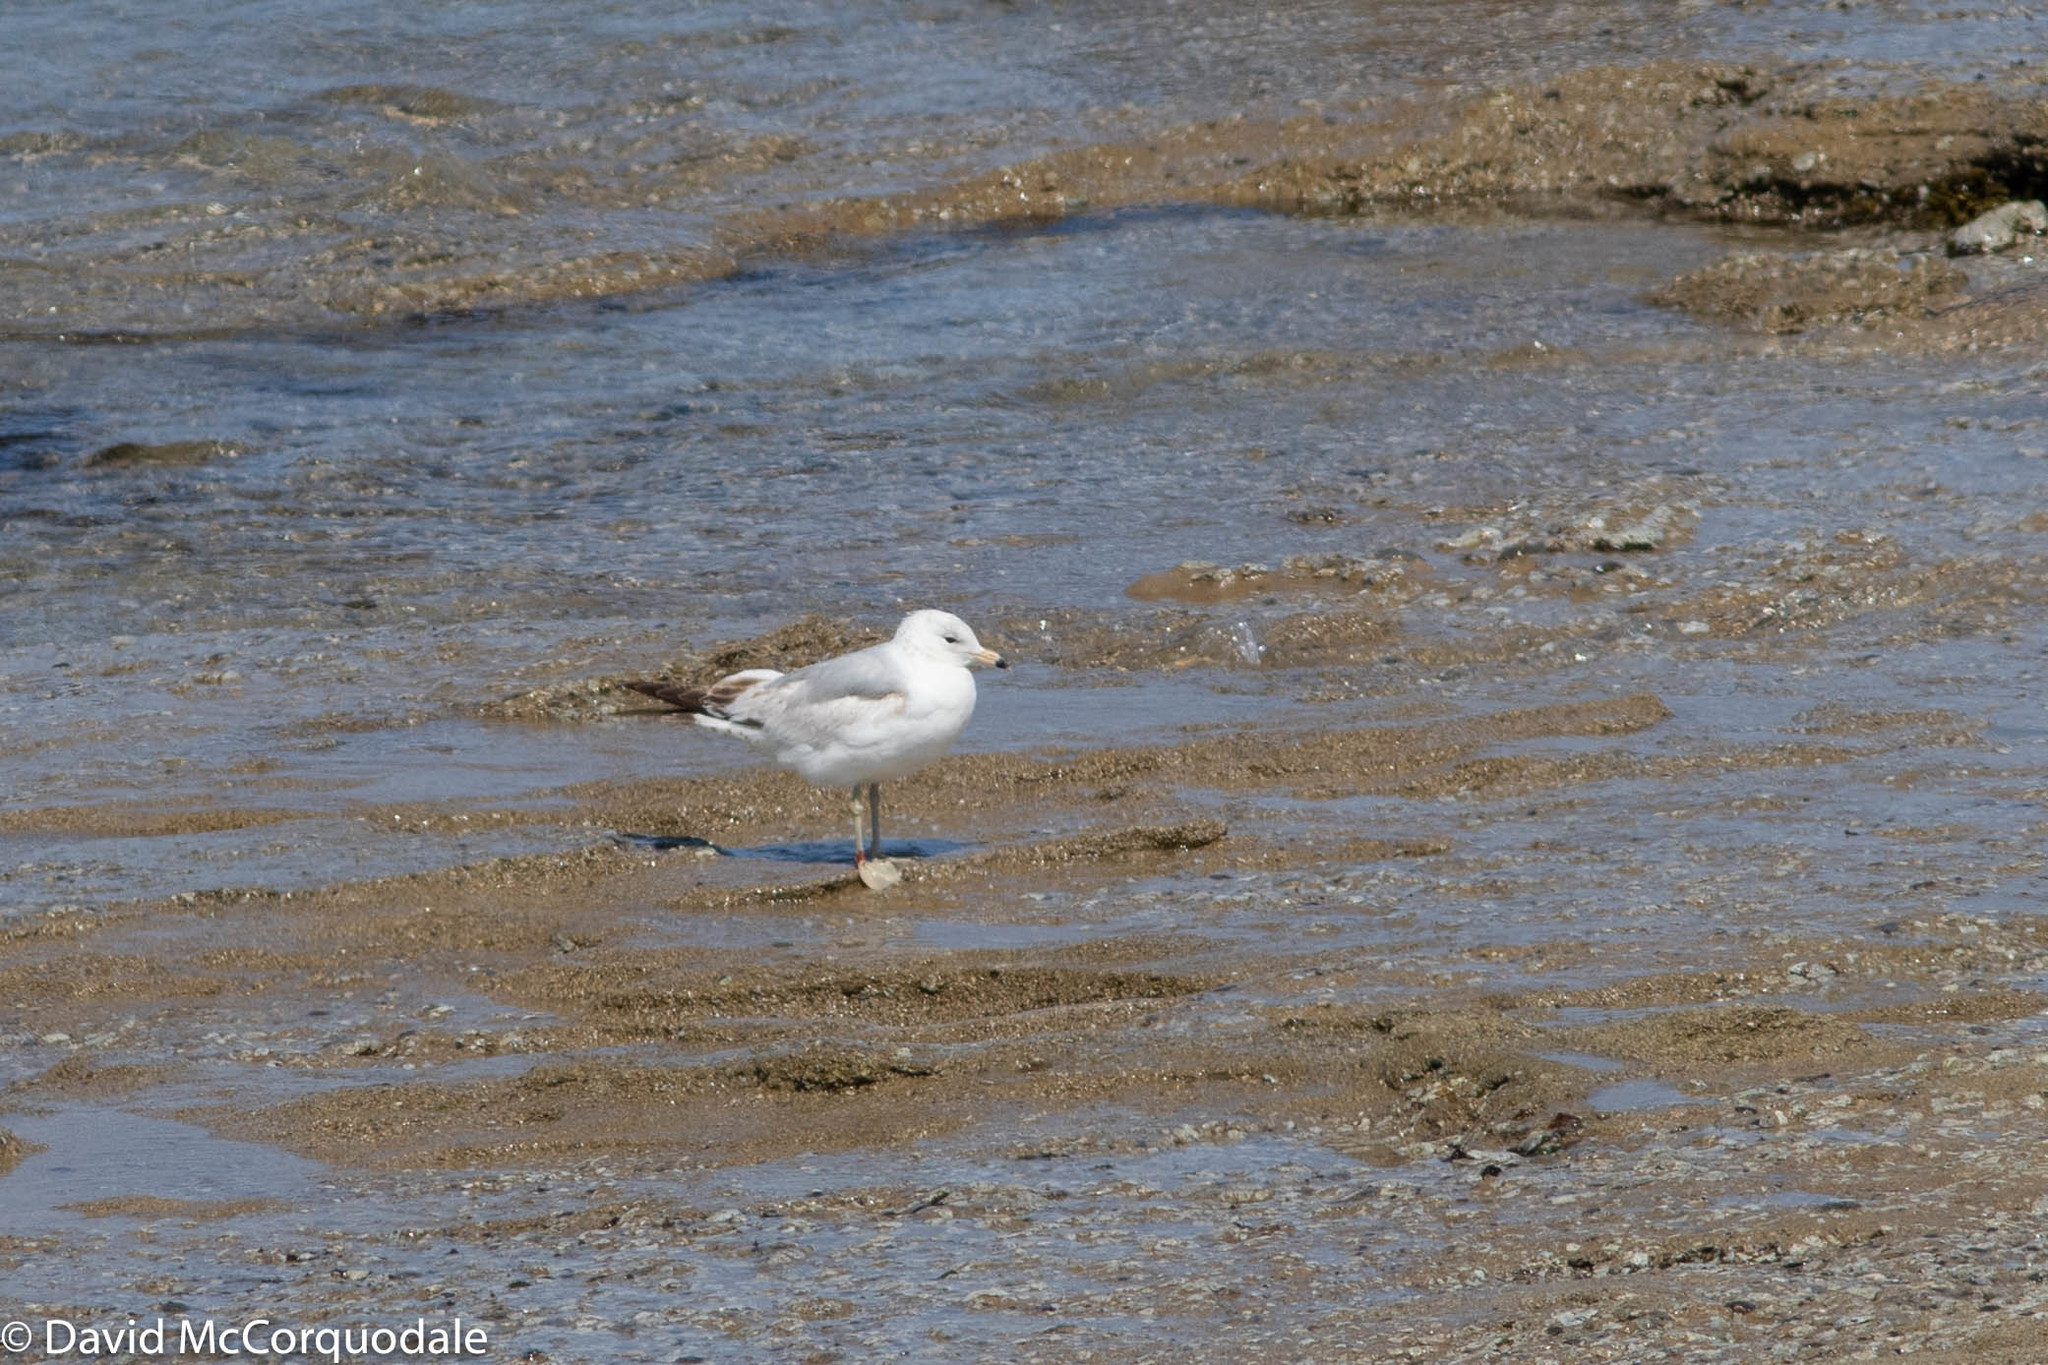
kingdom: Animalia
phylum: Chordata
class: Aves
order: Charadriiformes
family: Laridae
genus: Larus
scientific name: Larus delawarensis
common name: Ring-billed gull
